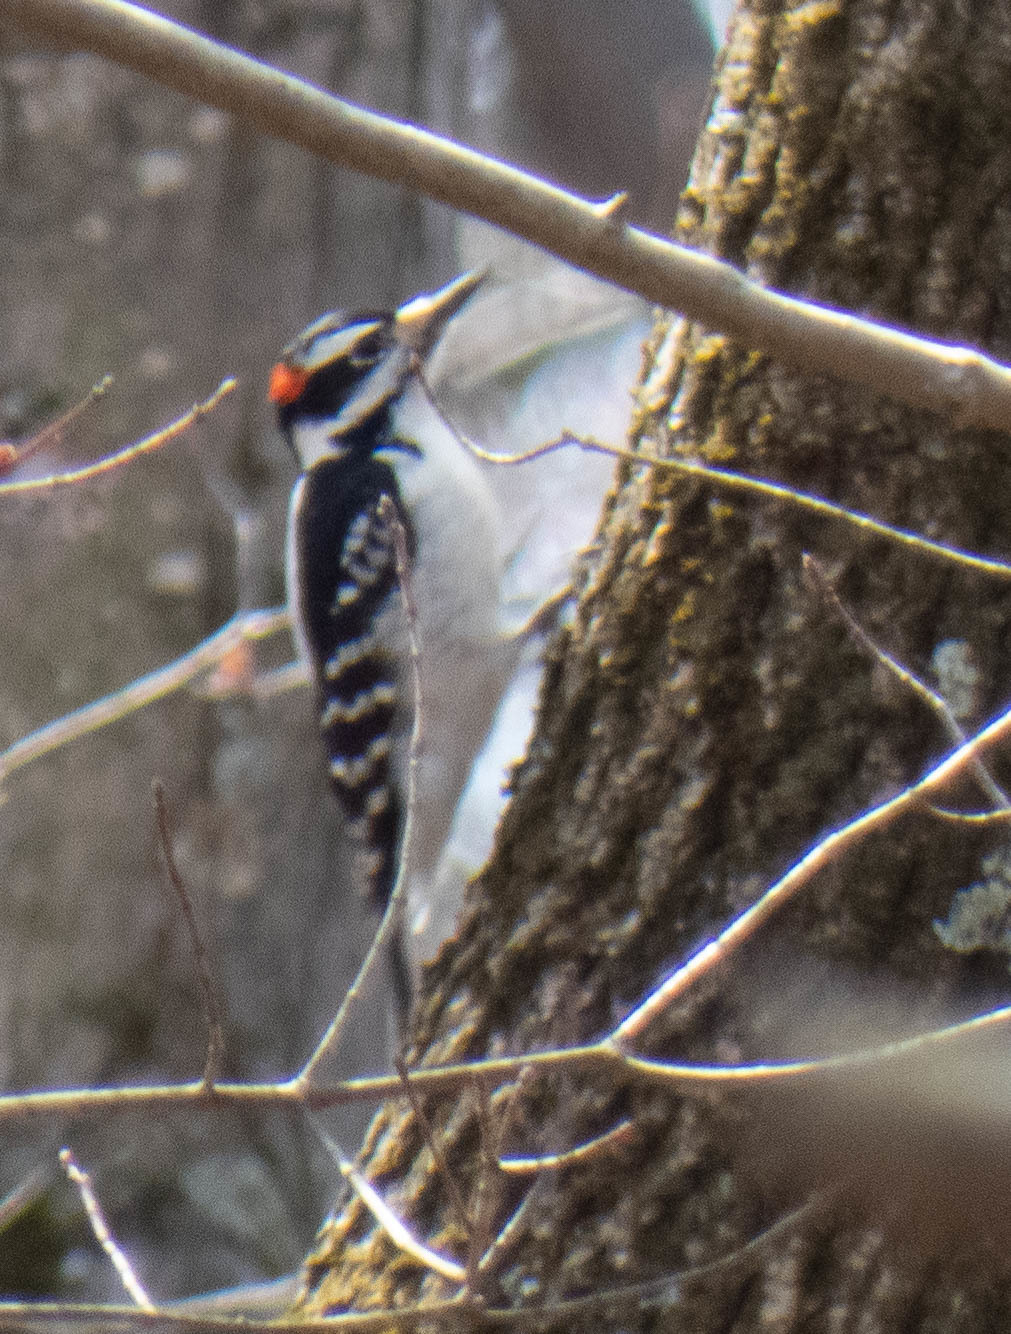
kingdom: Animalia
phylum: Chordata
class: Aves
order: Piciformes
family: Picidae
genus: Leuconotopicus
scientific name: Leuconotopicus villosus
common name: Hairy woodpecker
